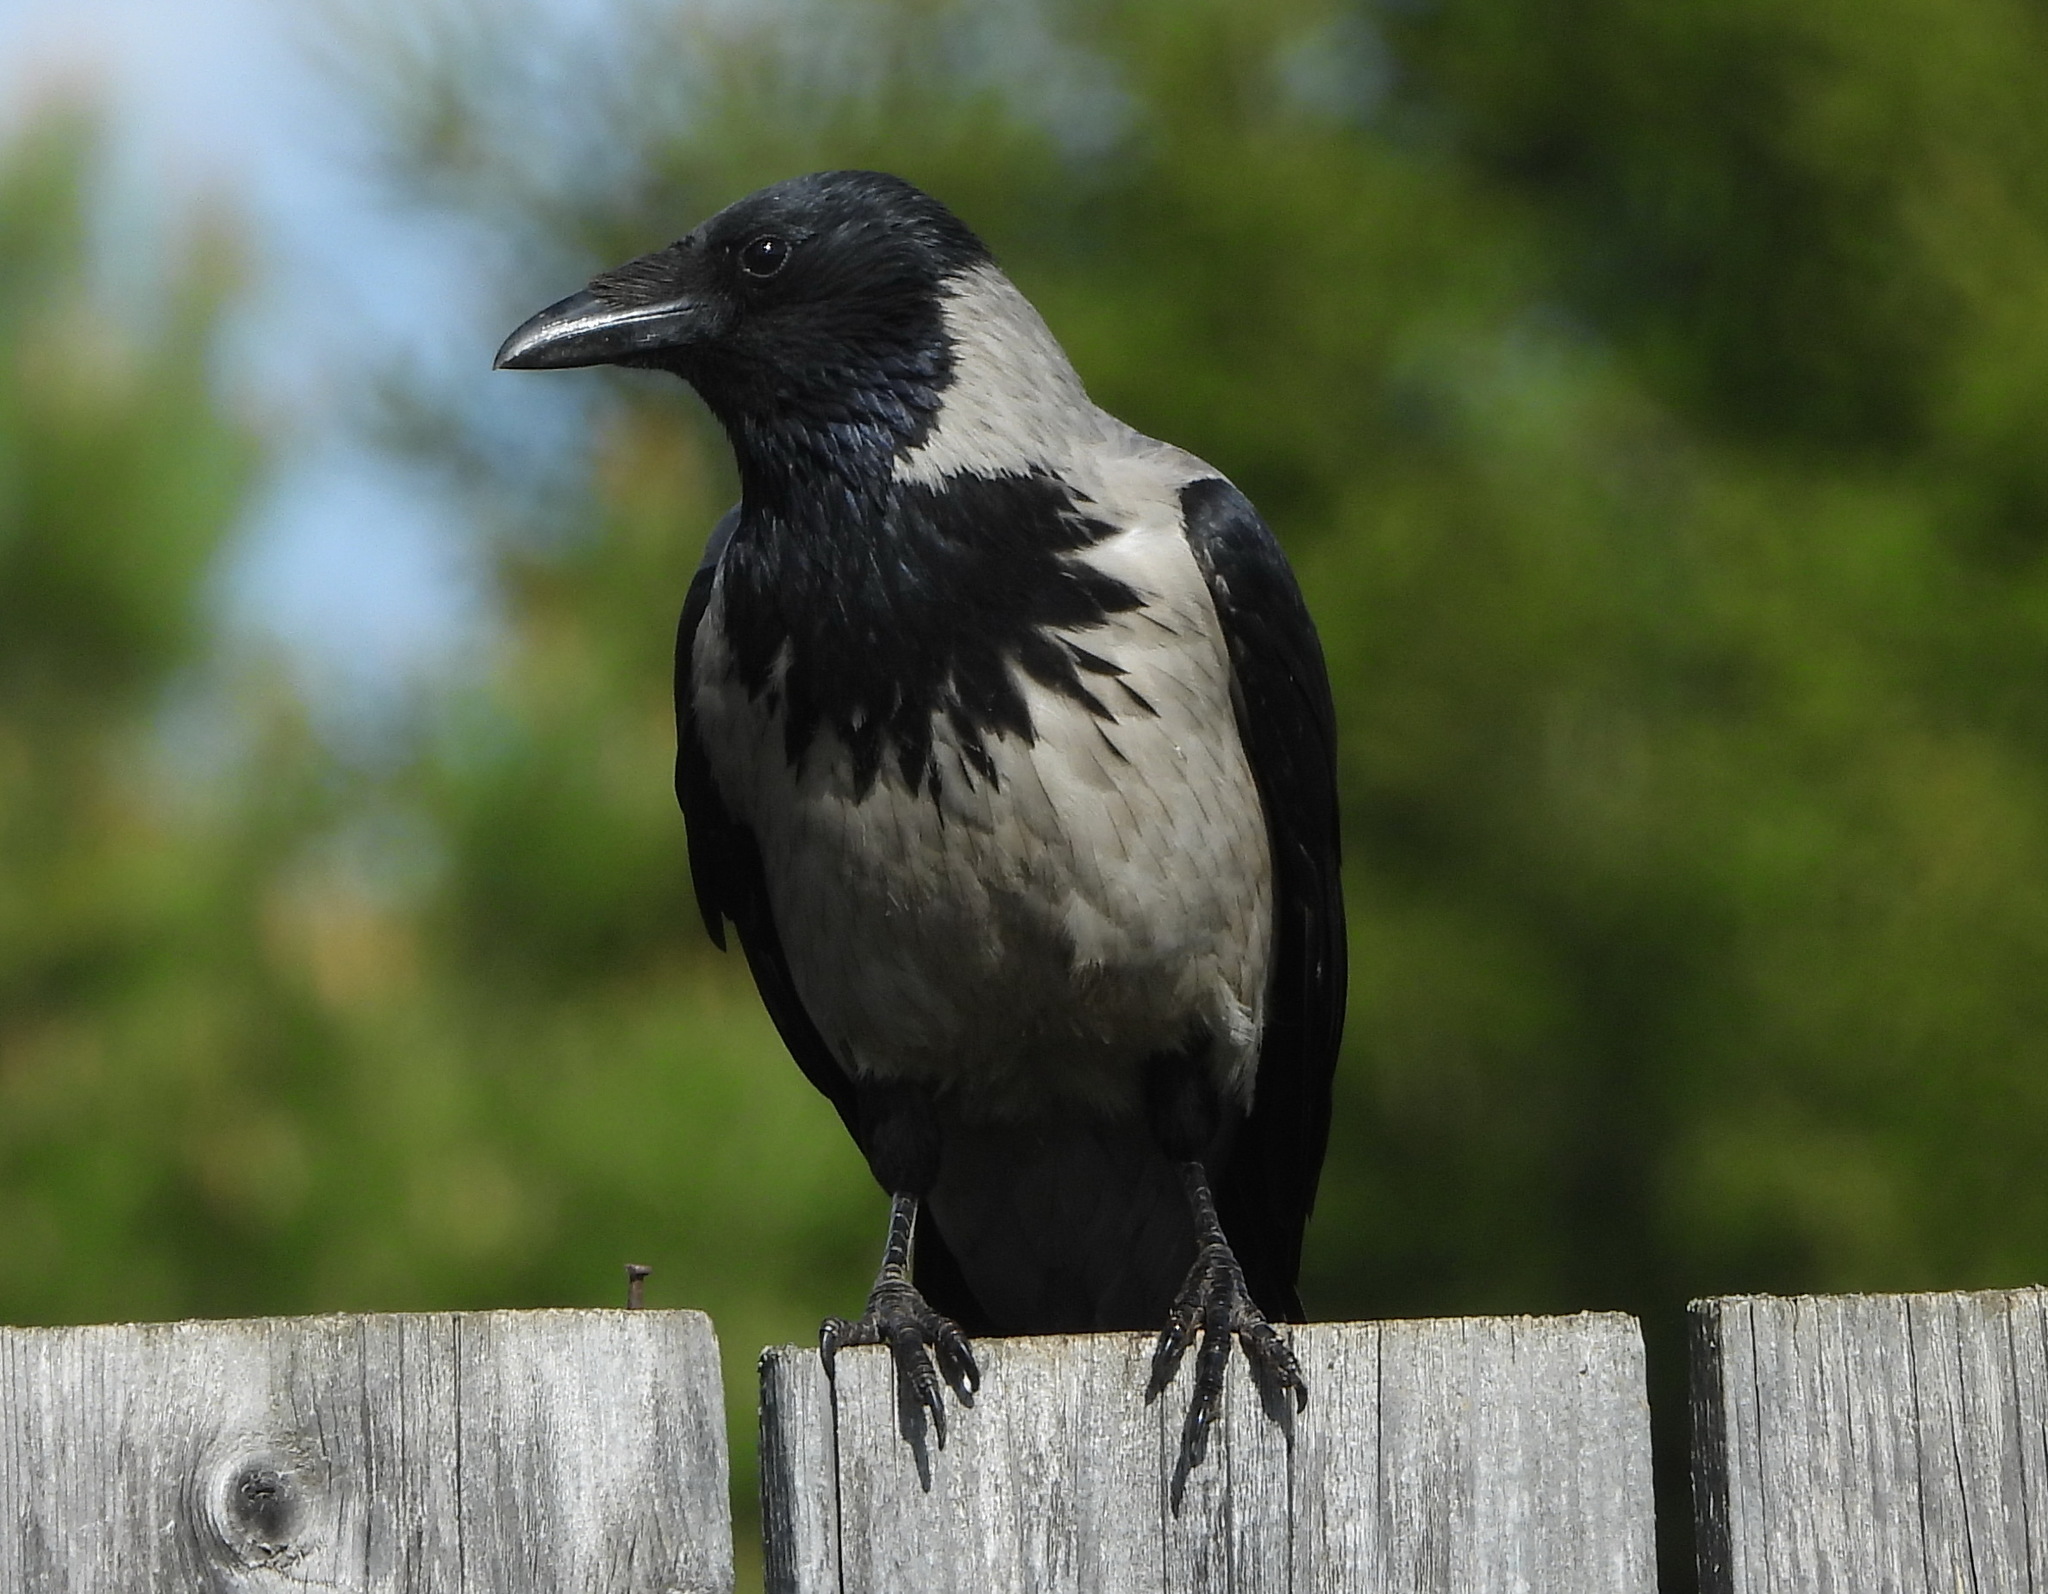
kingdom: Animalia
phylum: Chordata
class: Aves
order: Passeriformes
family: Corvidae
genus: Corvus
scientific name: Corvus cornix
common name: Hooded crow
